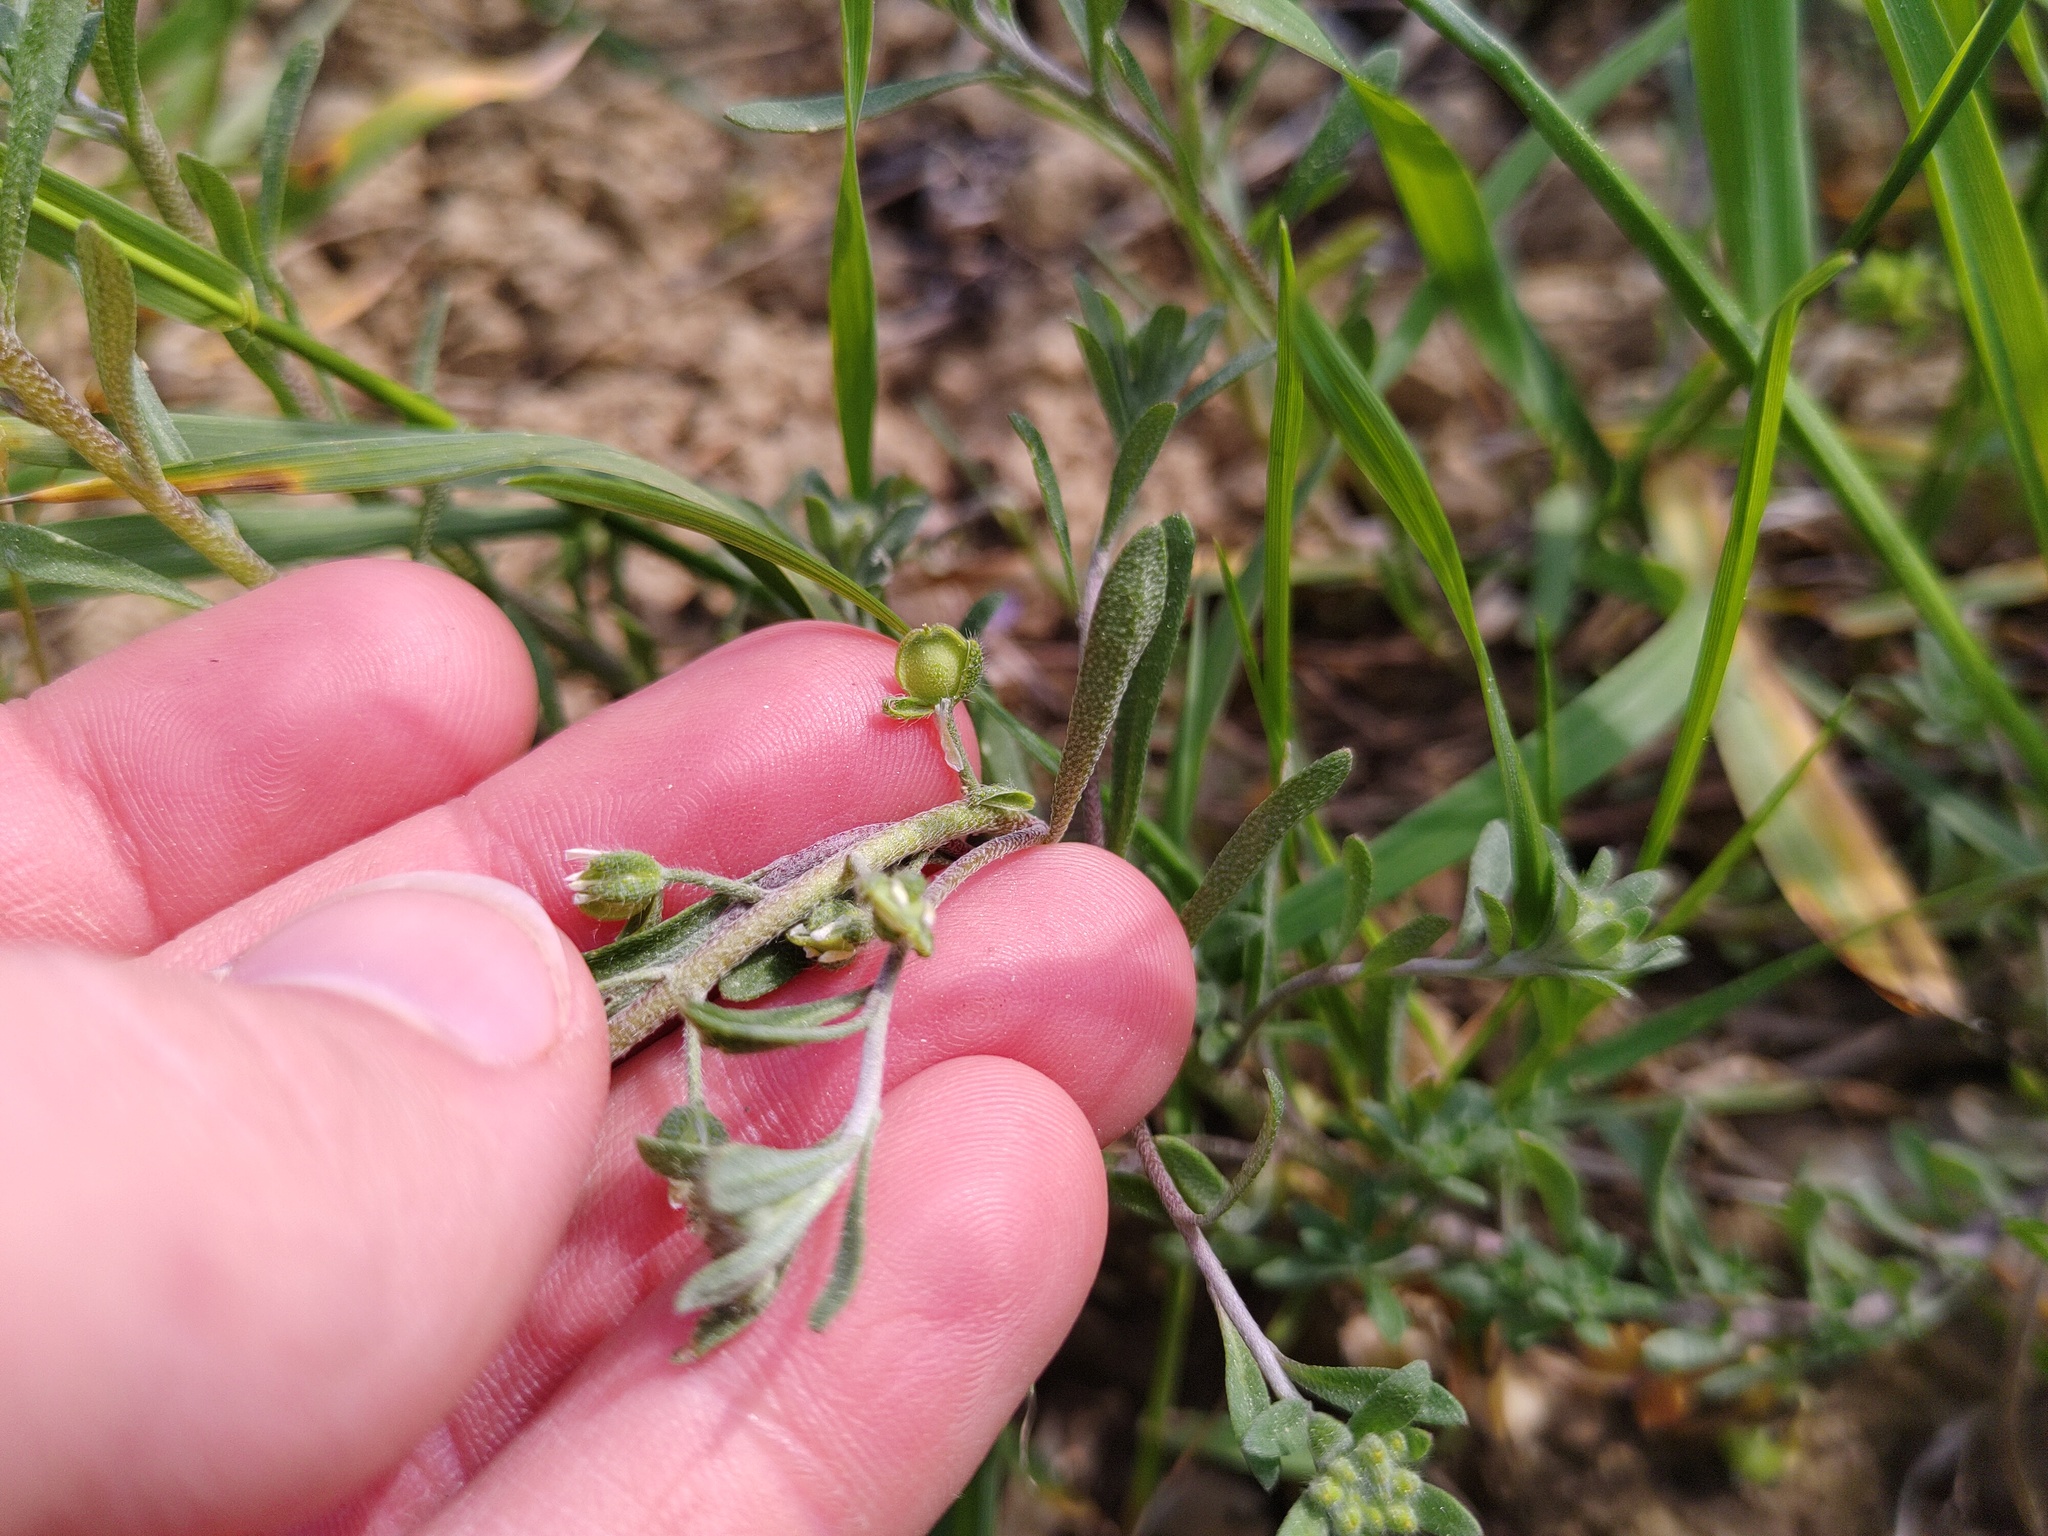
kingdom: Plantae
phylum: Tracheophyta
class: Magnoliopsida
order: Brassicales
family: Brassicaceae
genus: Alyssum
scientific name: Alyssum alyssoides
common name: Small alison
